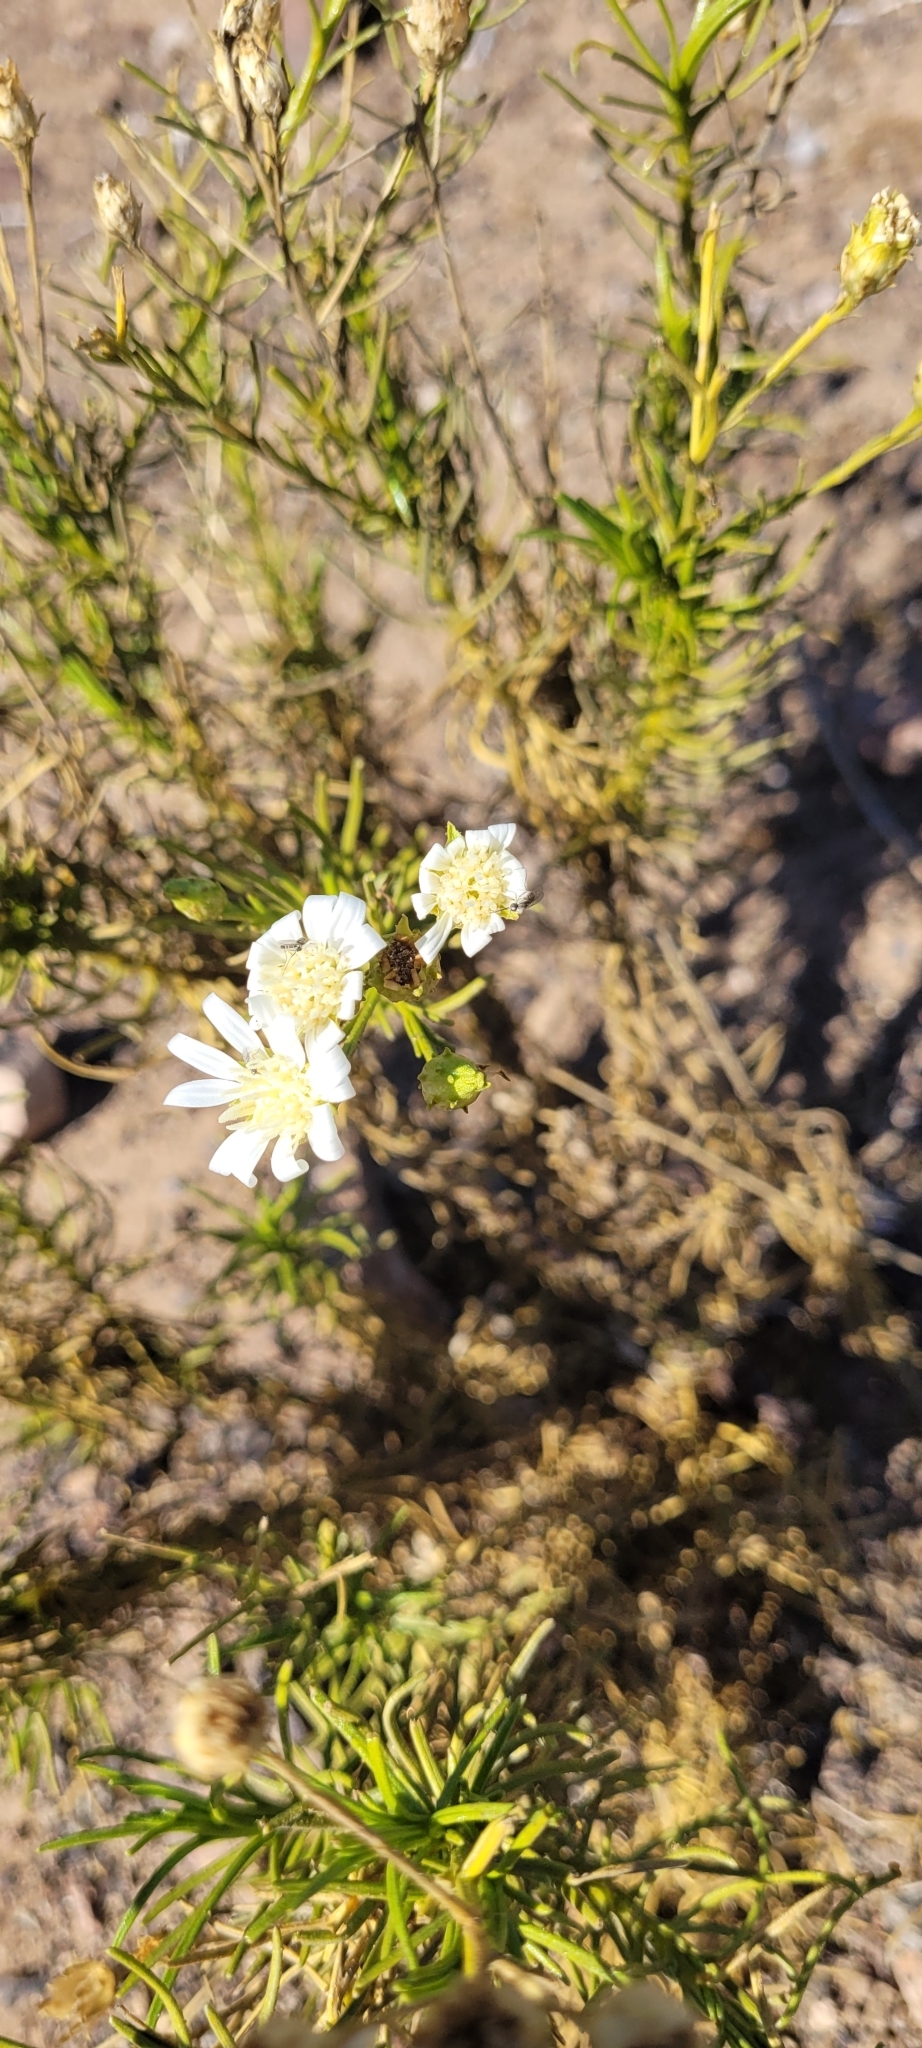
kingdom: Plantae
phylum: Tracheophyta
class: Magnoliopsida
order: Asterales
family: Asteraceae
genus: Gutierrezia
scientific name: Gutierrezia gayana
